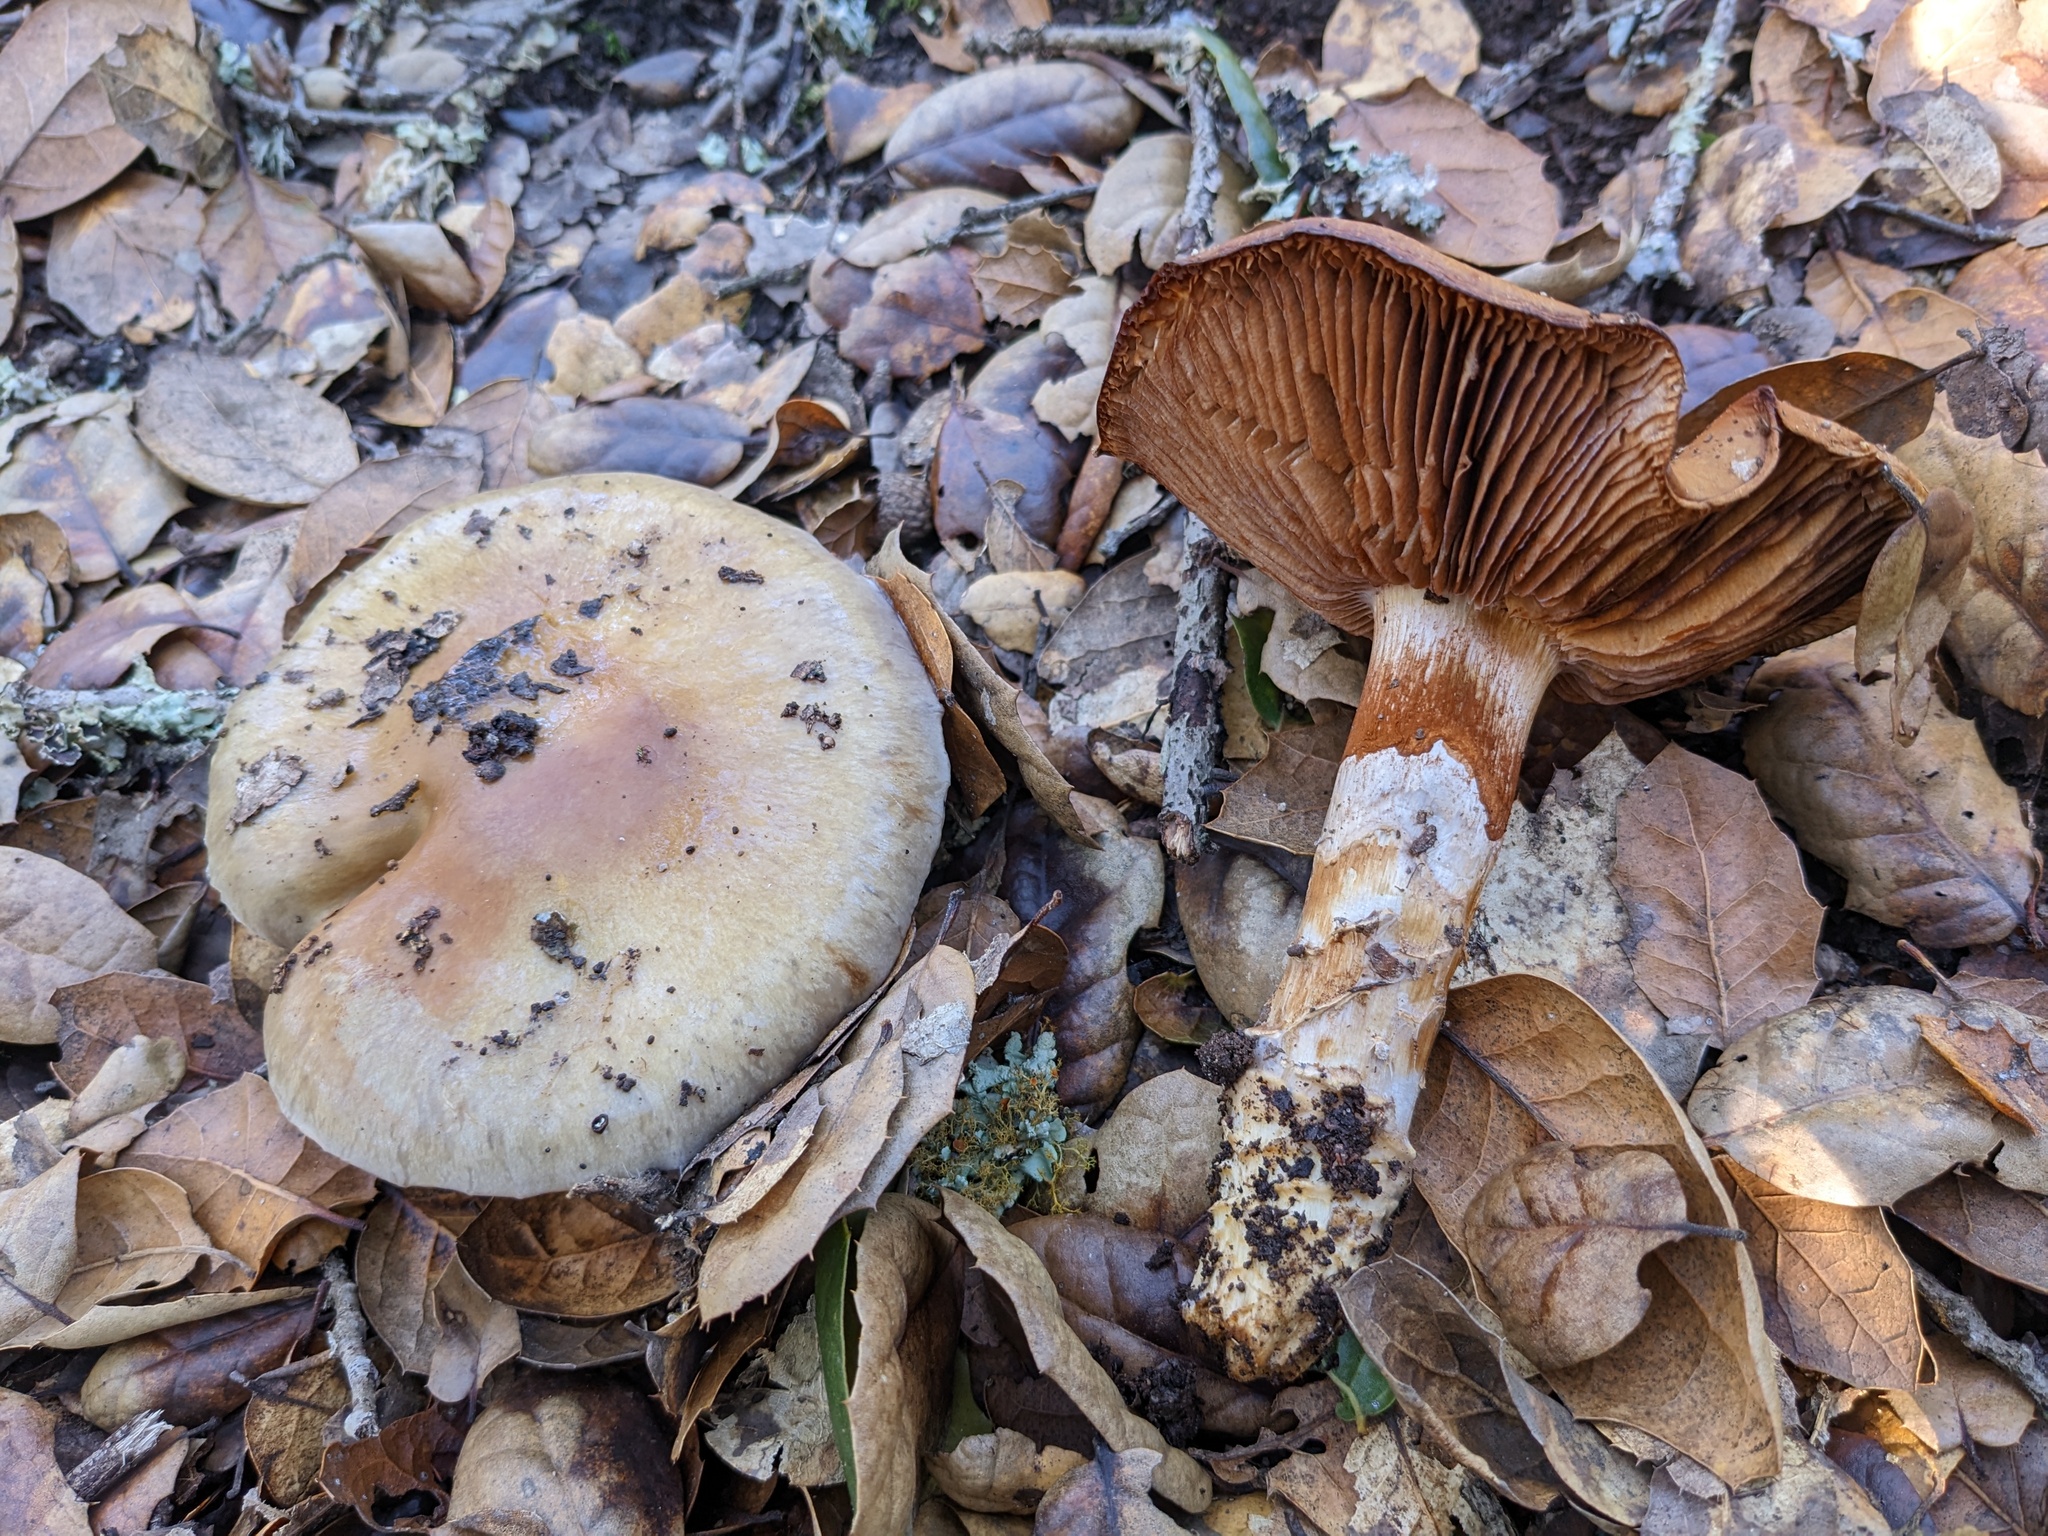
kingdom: Fungi
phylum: Basidiomycota
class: Agaricomycetes
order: Agaricales
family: Cortinariaceae
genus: Cortinarius
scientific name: Cortinarius glutinosoarmillatus
